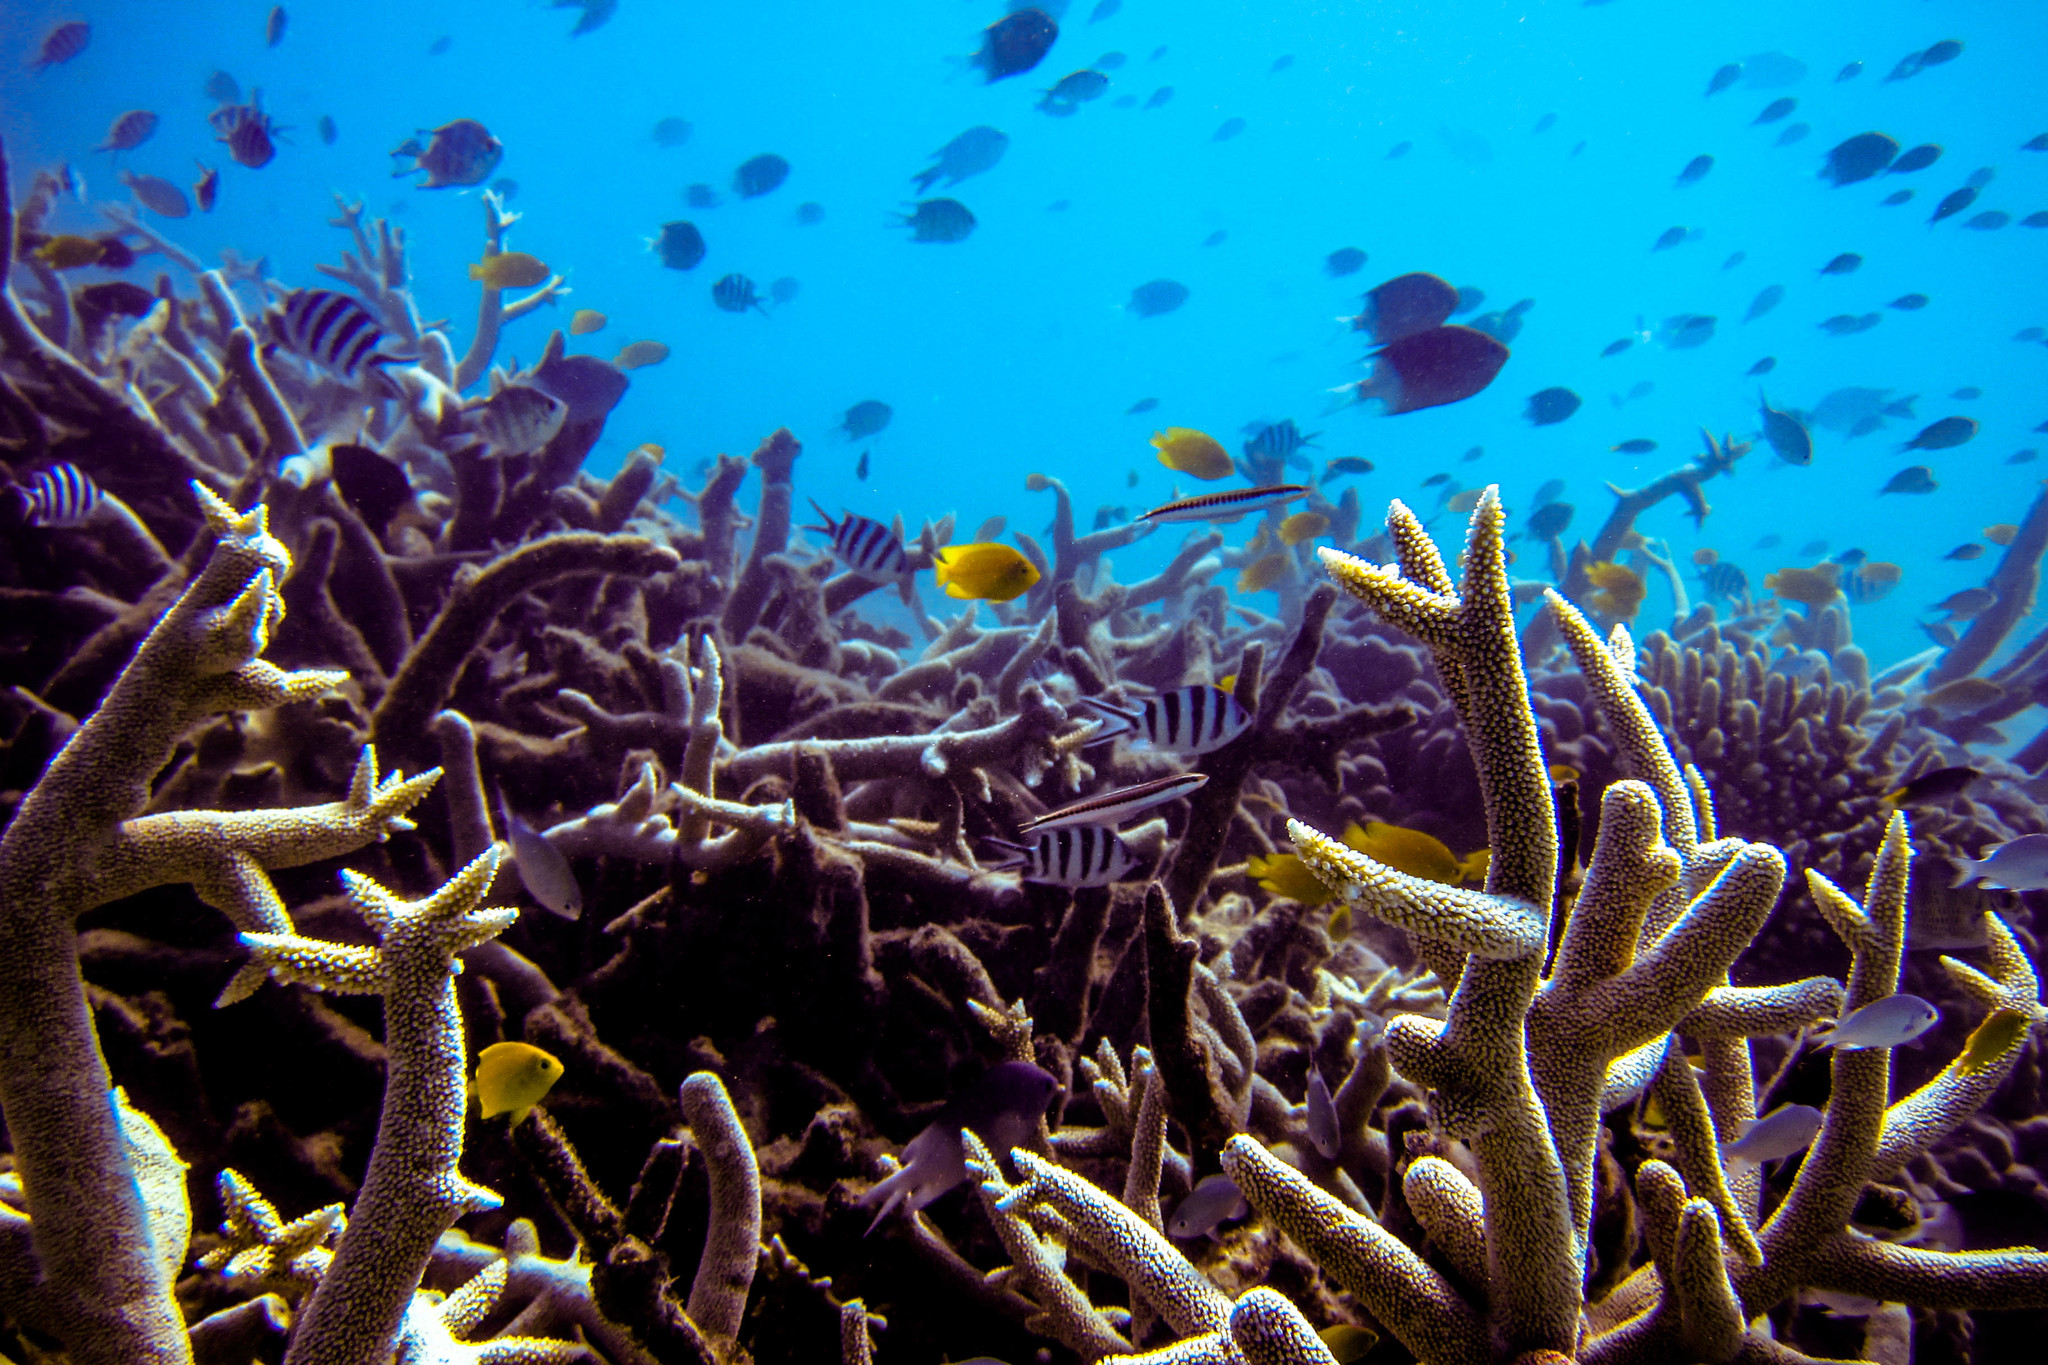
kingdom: Animalia
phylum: Chordata
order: Perciformes
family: Pomacentridae
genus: Abudefduf
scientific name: Abudefduf sexfasciatus
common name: Scissortail sergeant
